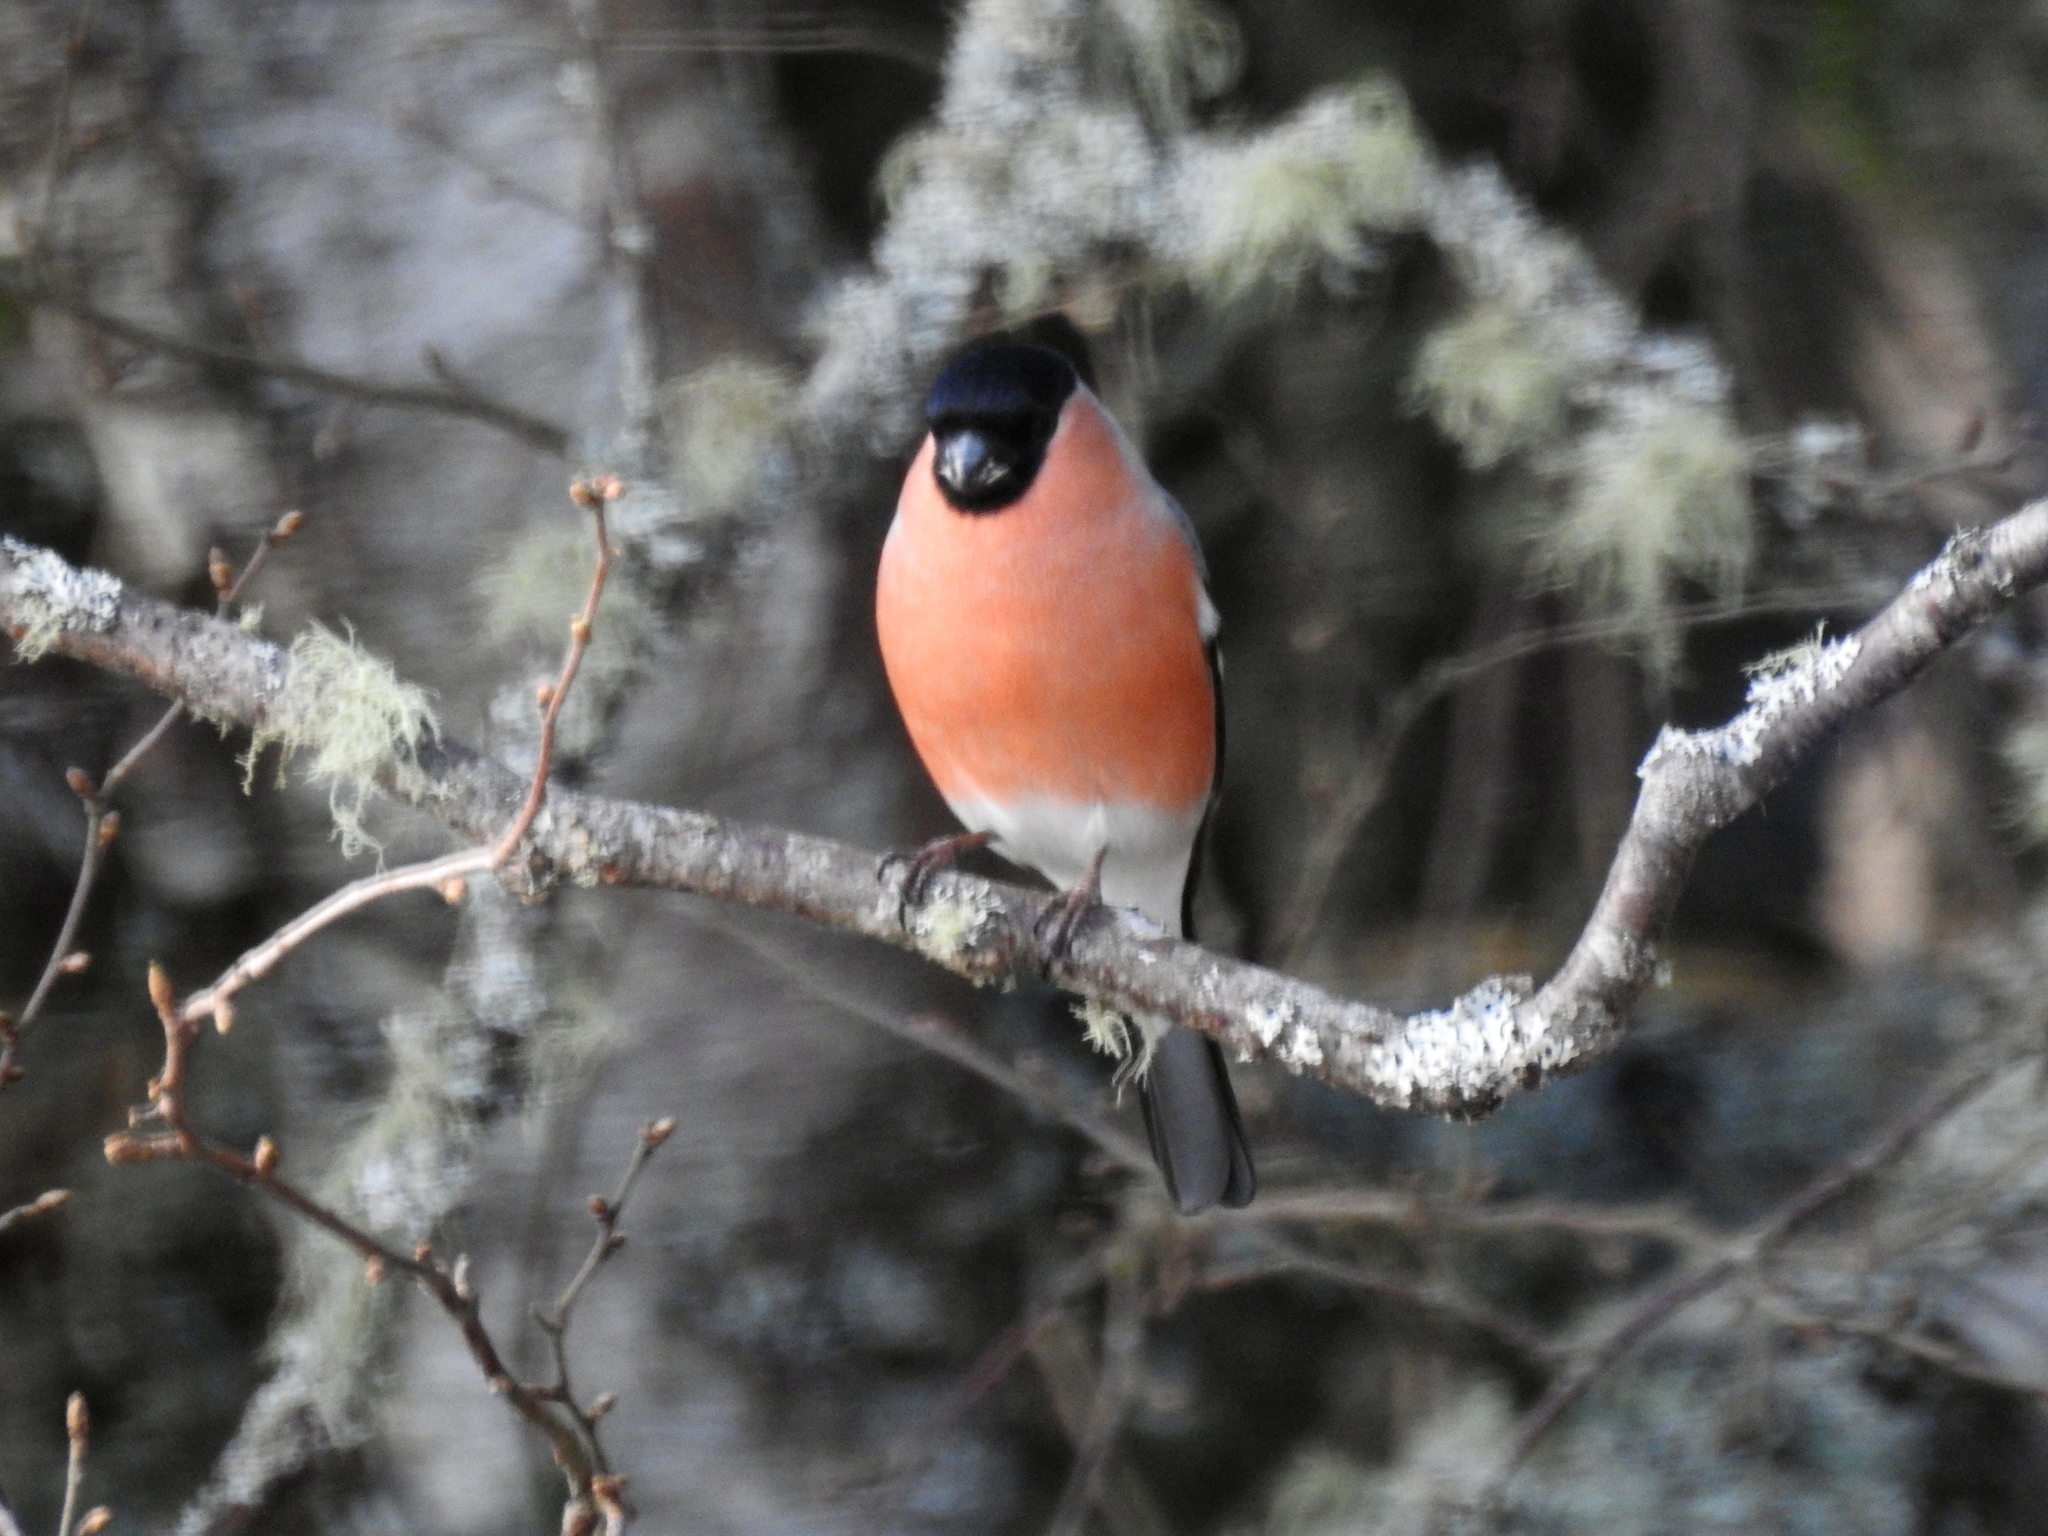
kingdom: Animalia
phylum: Chordata
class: Aves
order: Passeriformes
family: Fringillidae
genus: Pyrrhula
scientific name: Pyrrhula pyrrhula
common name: Eurasian bullfinch
